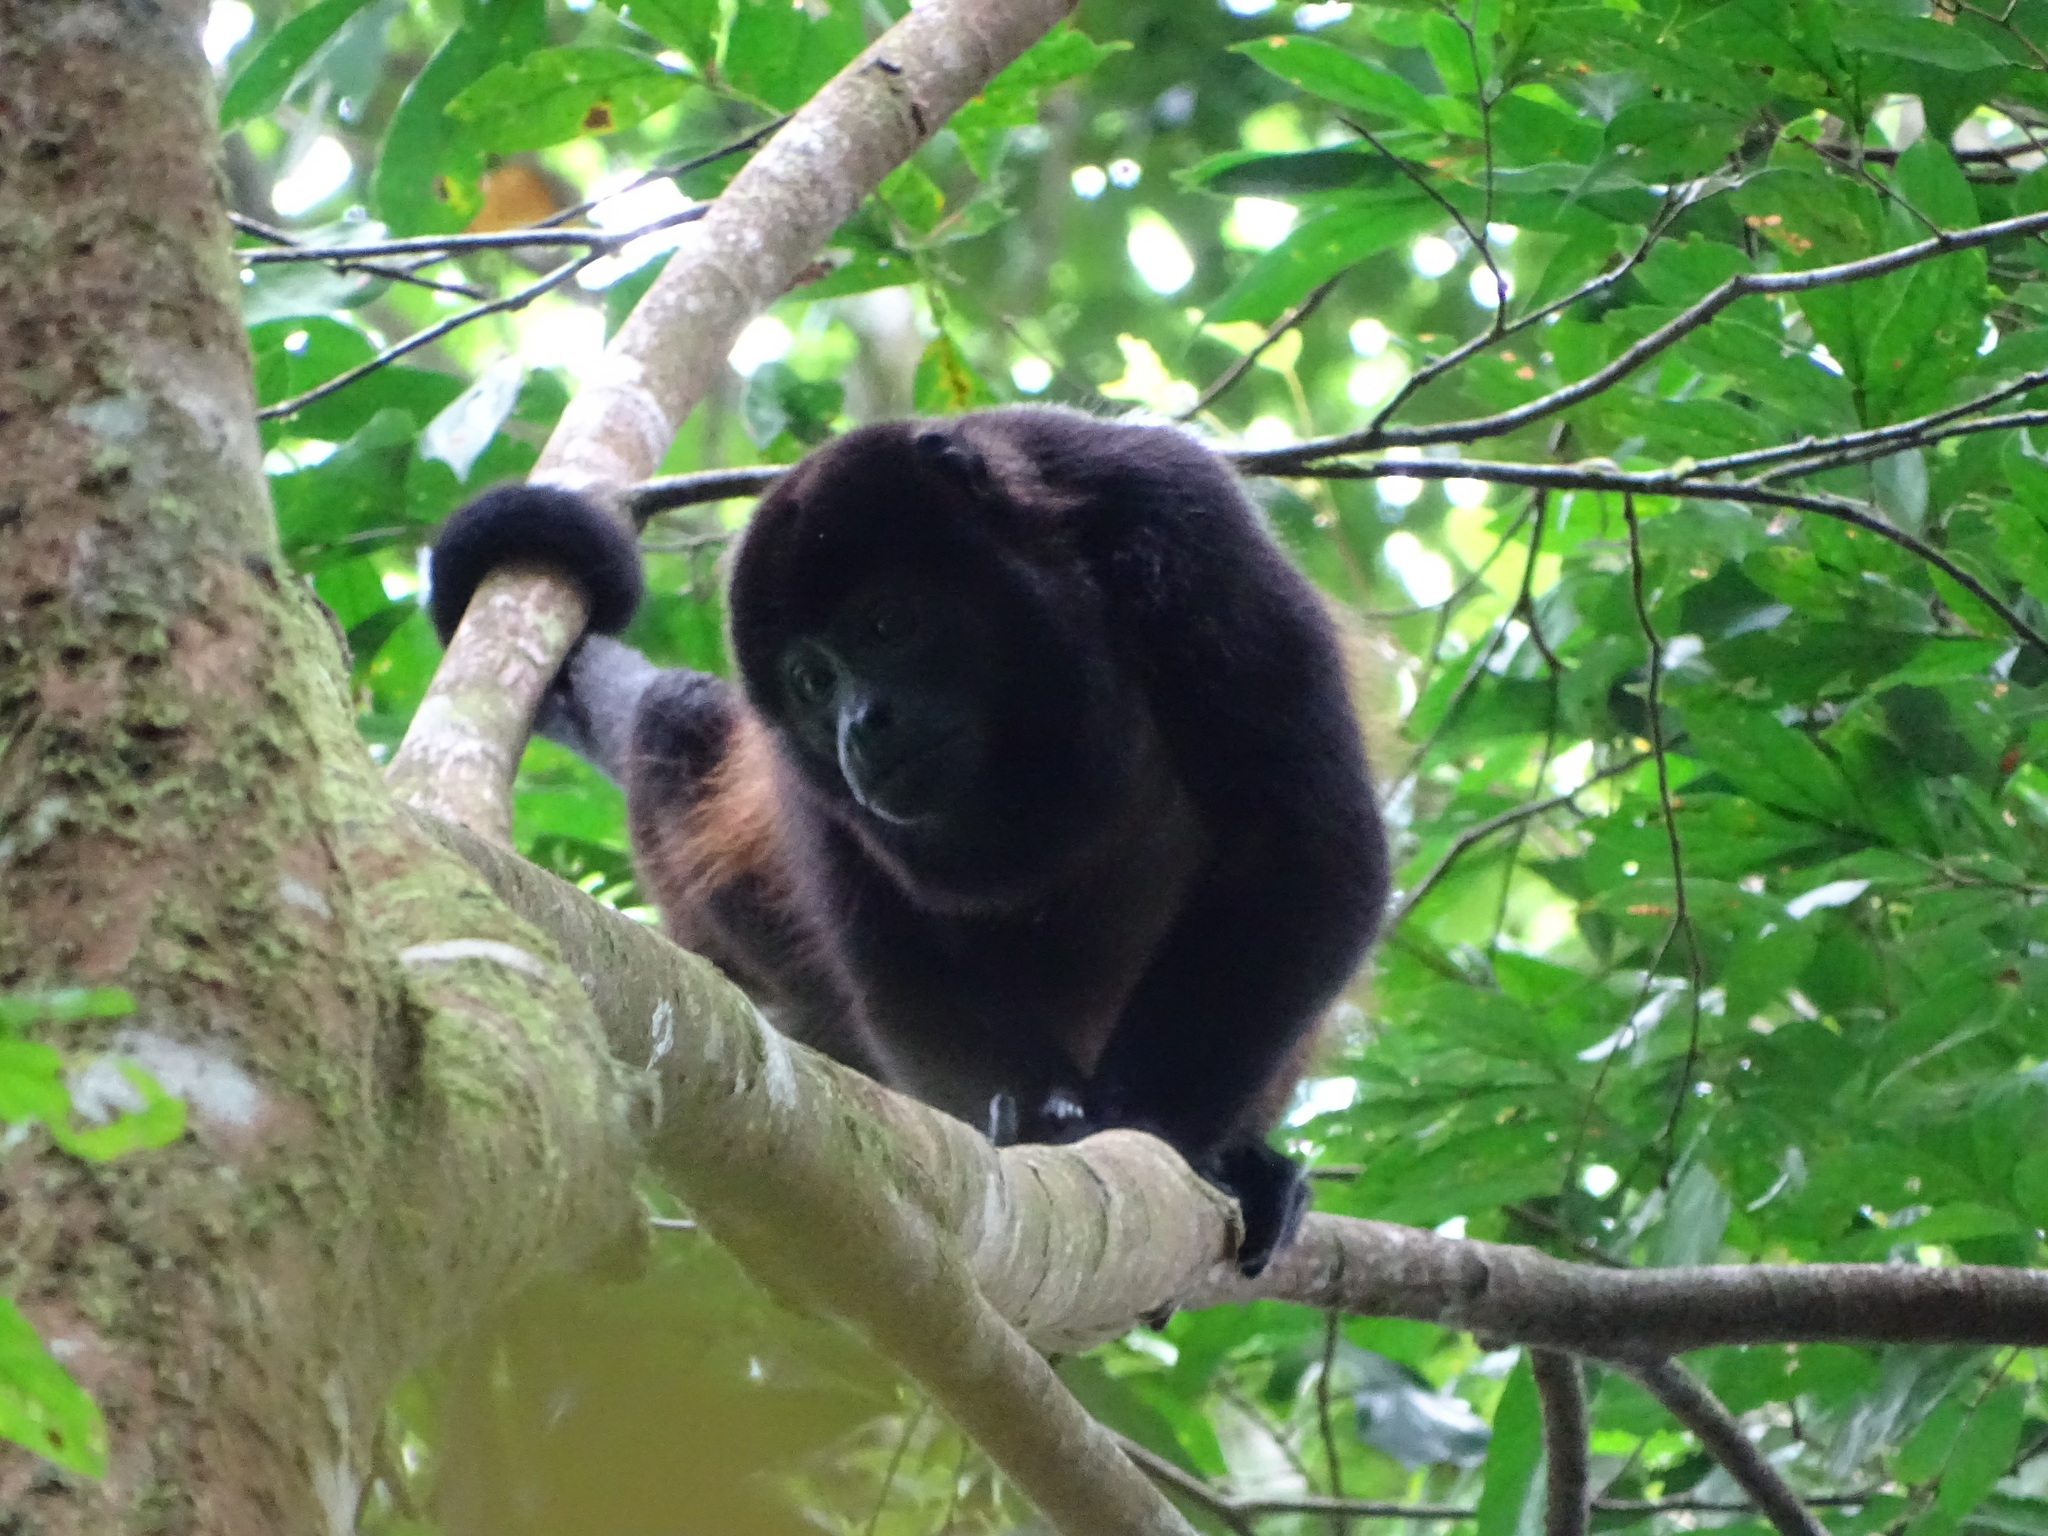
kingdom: Animalia
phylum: Chordata
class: Mammalia
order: Primates
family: Atelidae
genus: Alouatta
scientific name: Alouatta palliata
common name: Mantled howler
